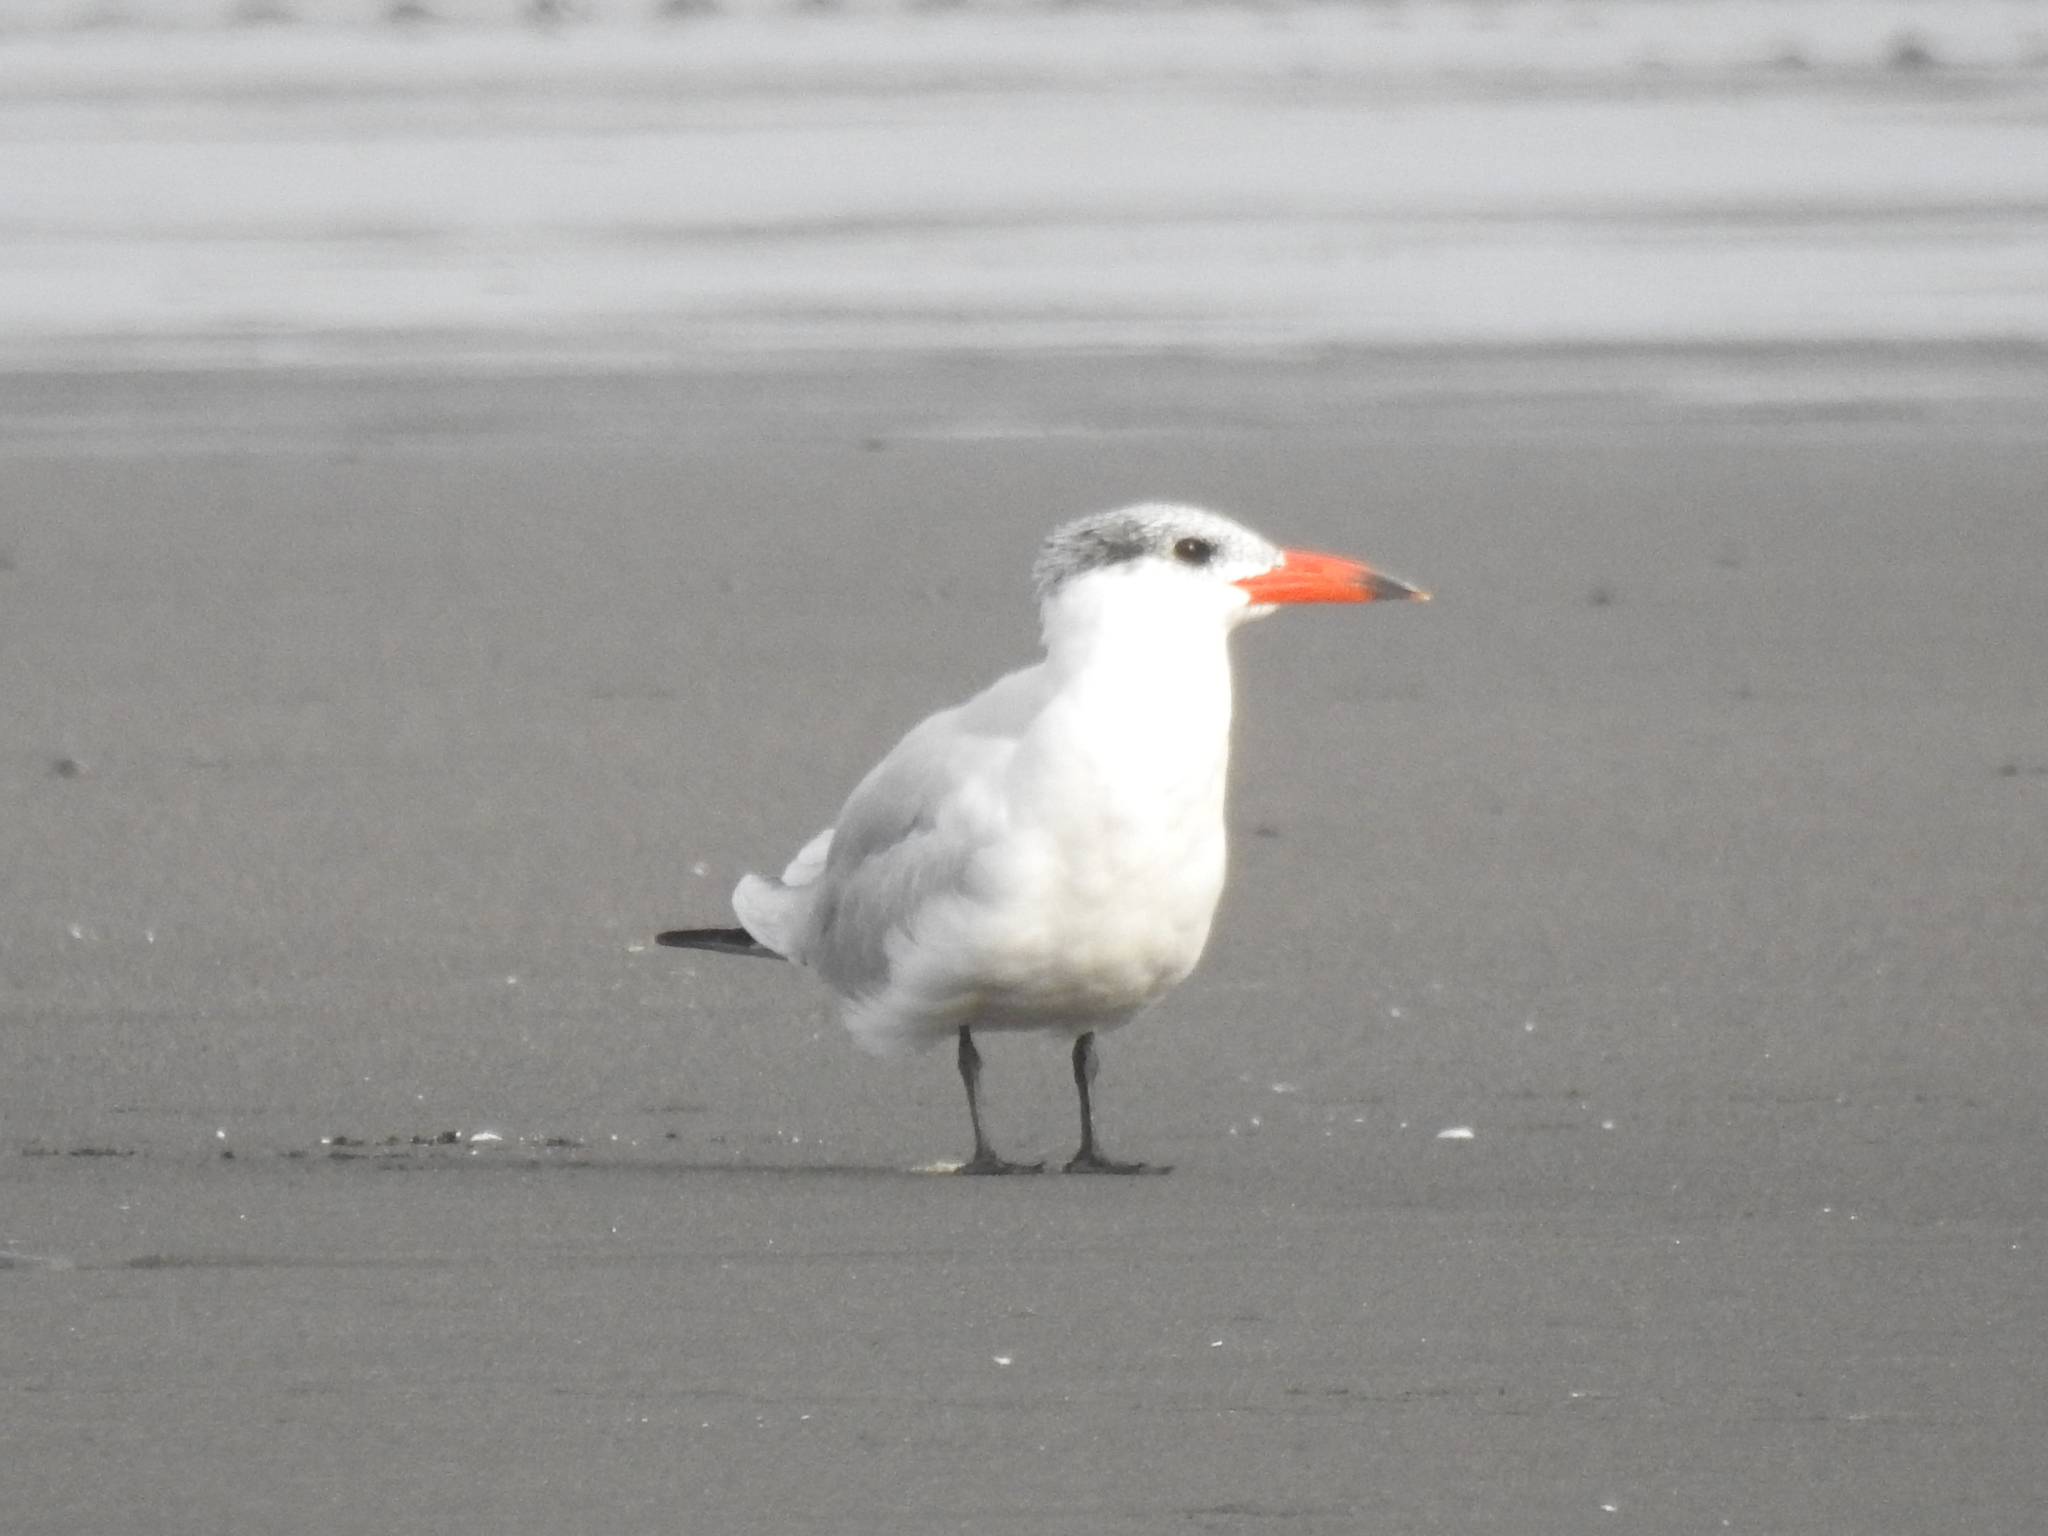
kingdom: Animalia
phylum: Chordata
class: Aves
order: Charadriiformes
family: Laridae
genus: Hydroprogne
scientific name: Hydroprogne caspia
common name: Caspian tern
